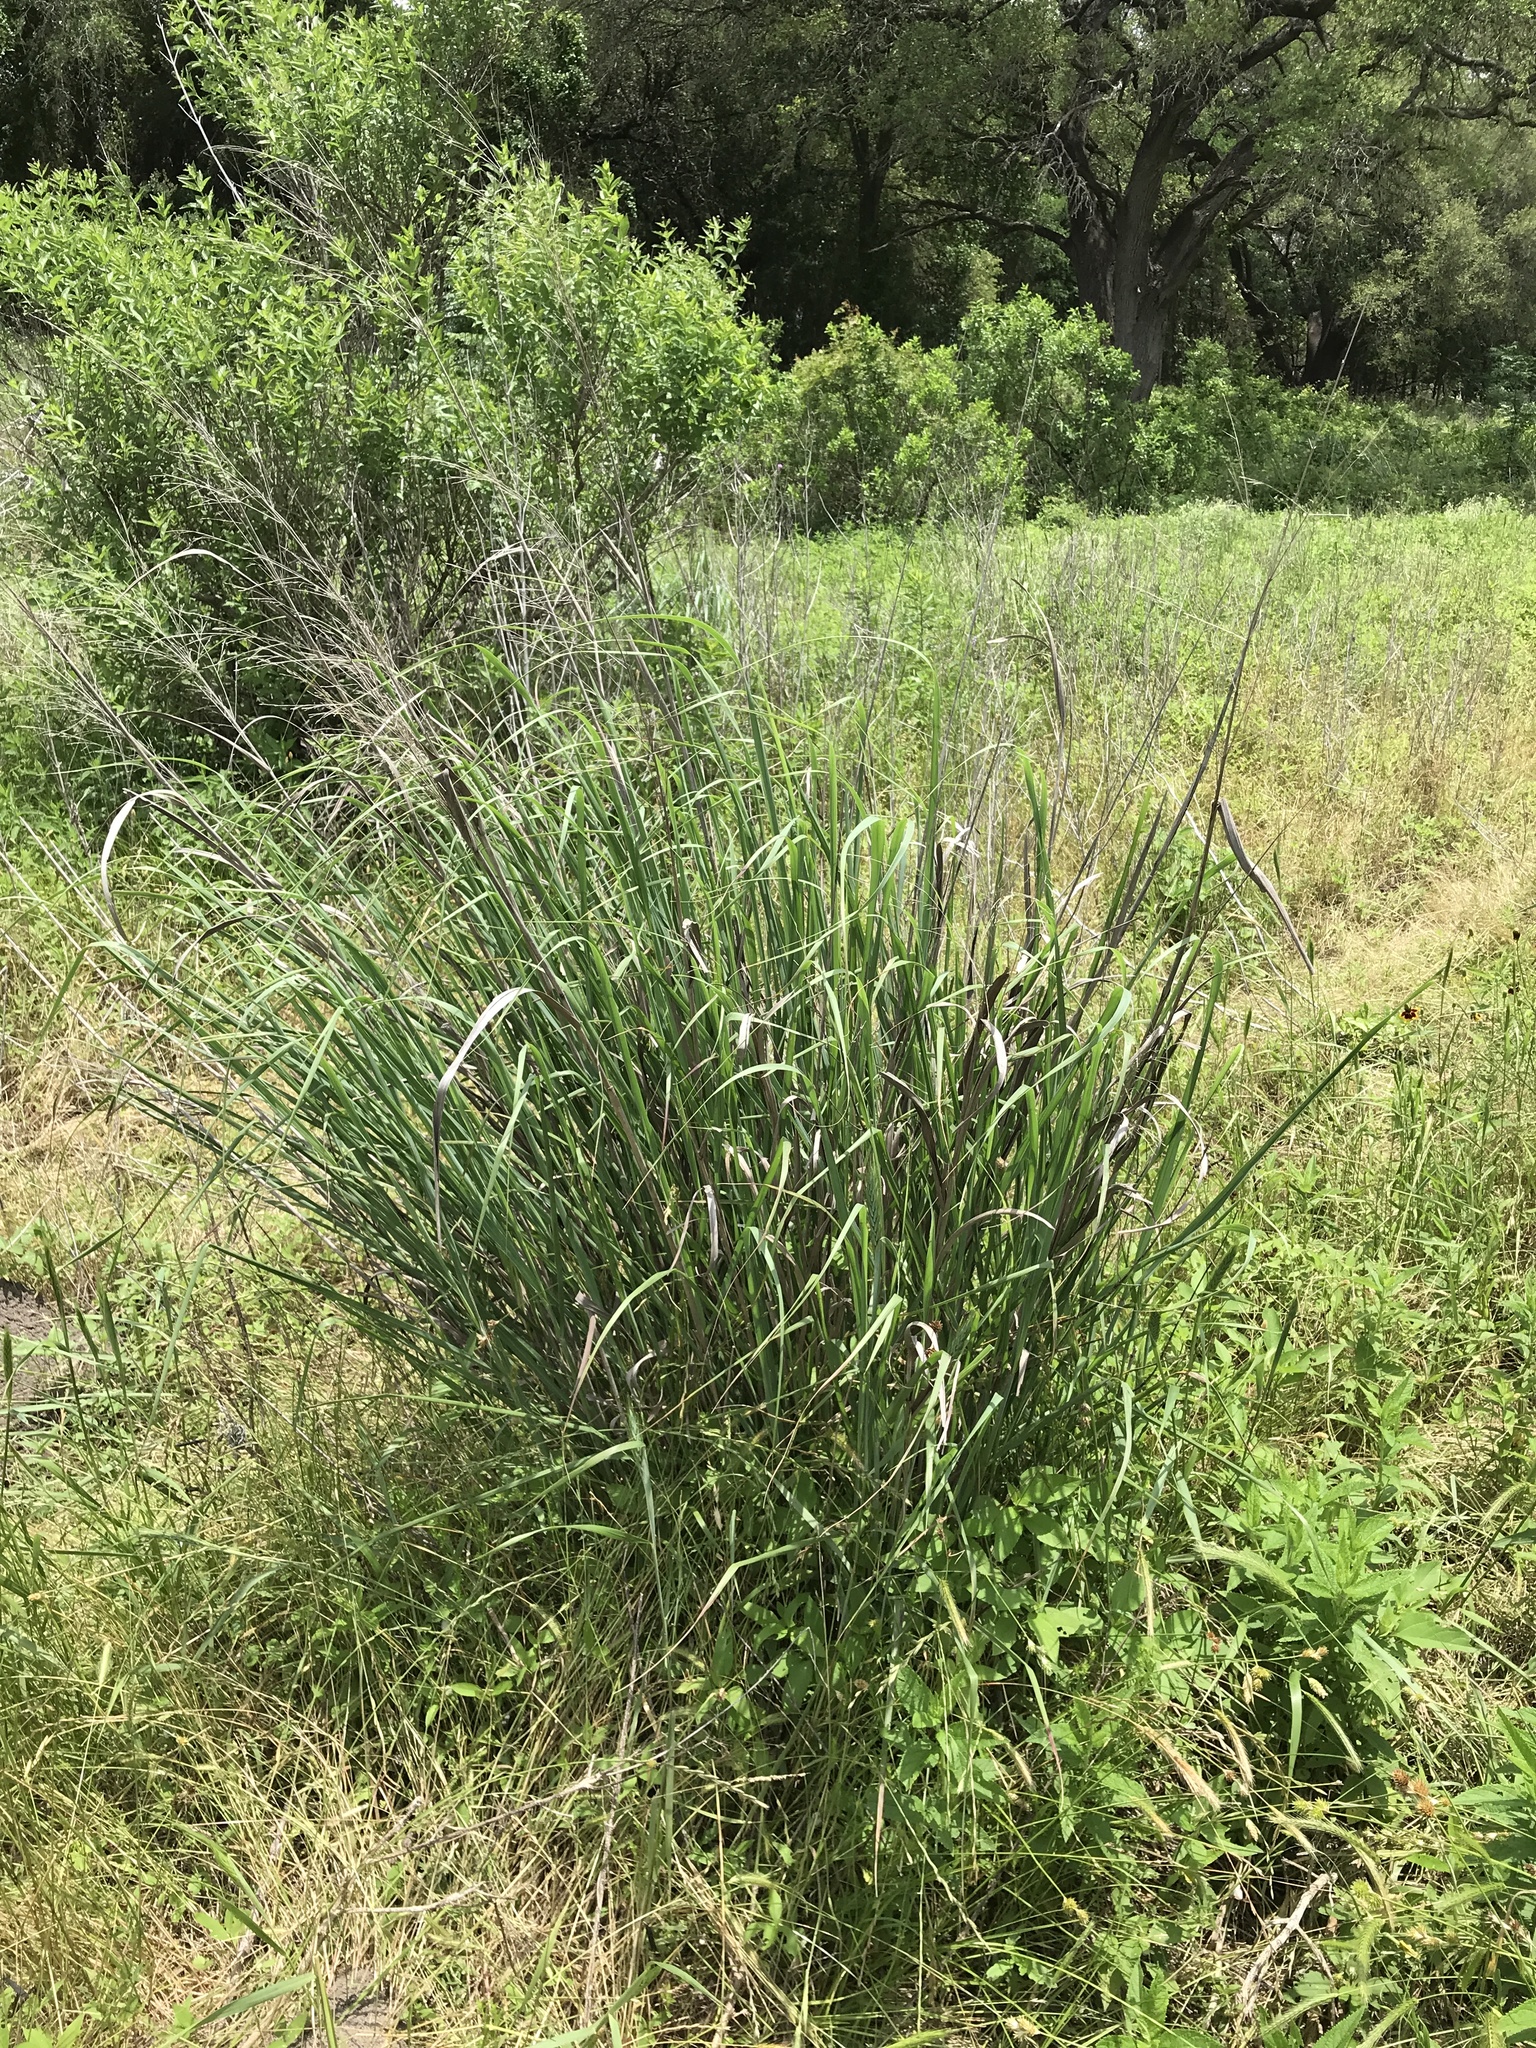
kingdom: Plantae
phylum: Tracheophyta
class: Liliopsida
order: Poales
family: Poaceae
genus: Panicum
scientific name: Panicum virgatum
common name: Switchgrass
